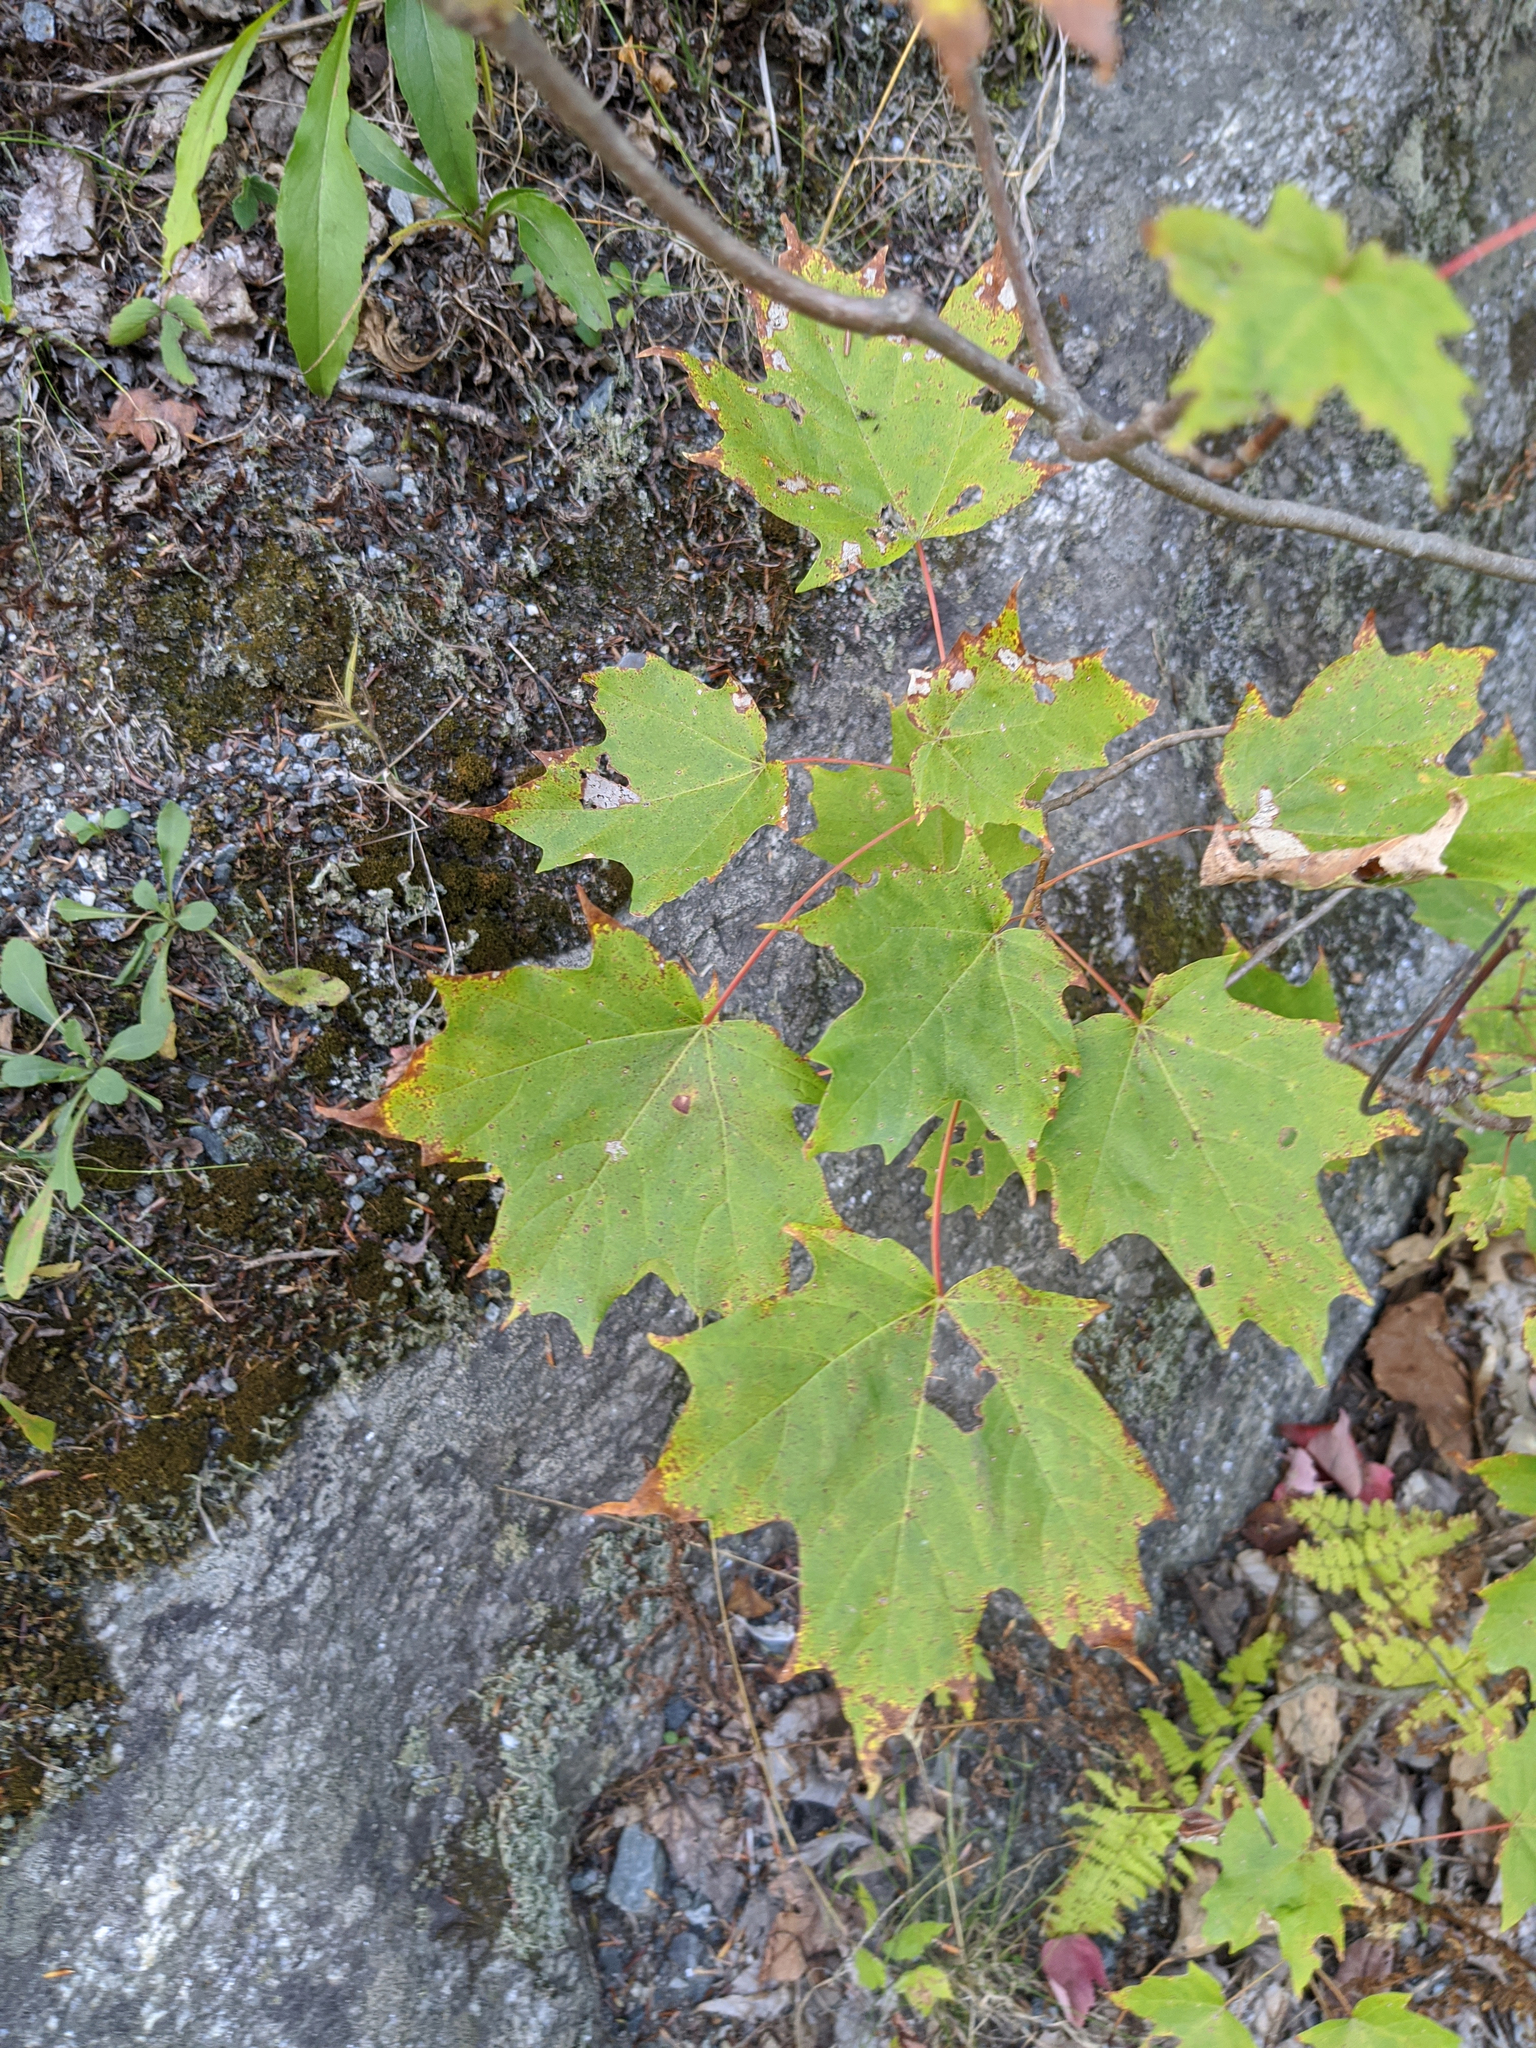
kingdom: Plantae
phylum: Tracheophyta
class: Magnoliopsida
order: Sapindales
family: Sapindaceae
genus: Acer
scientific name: Acer saccharum
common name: Sugar maple
